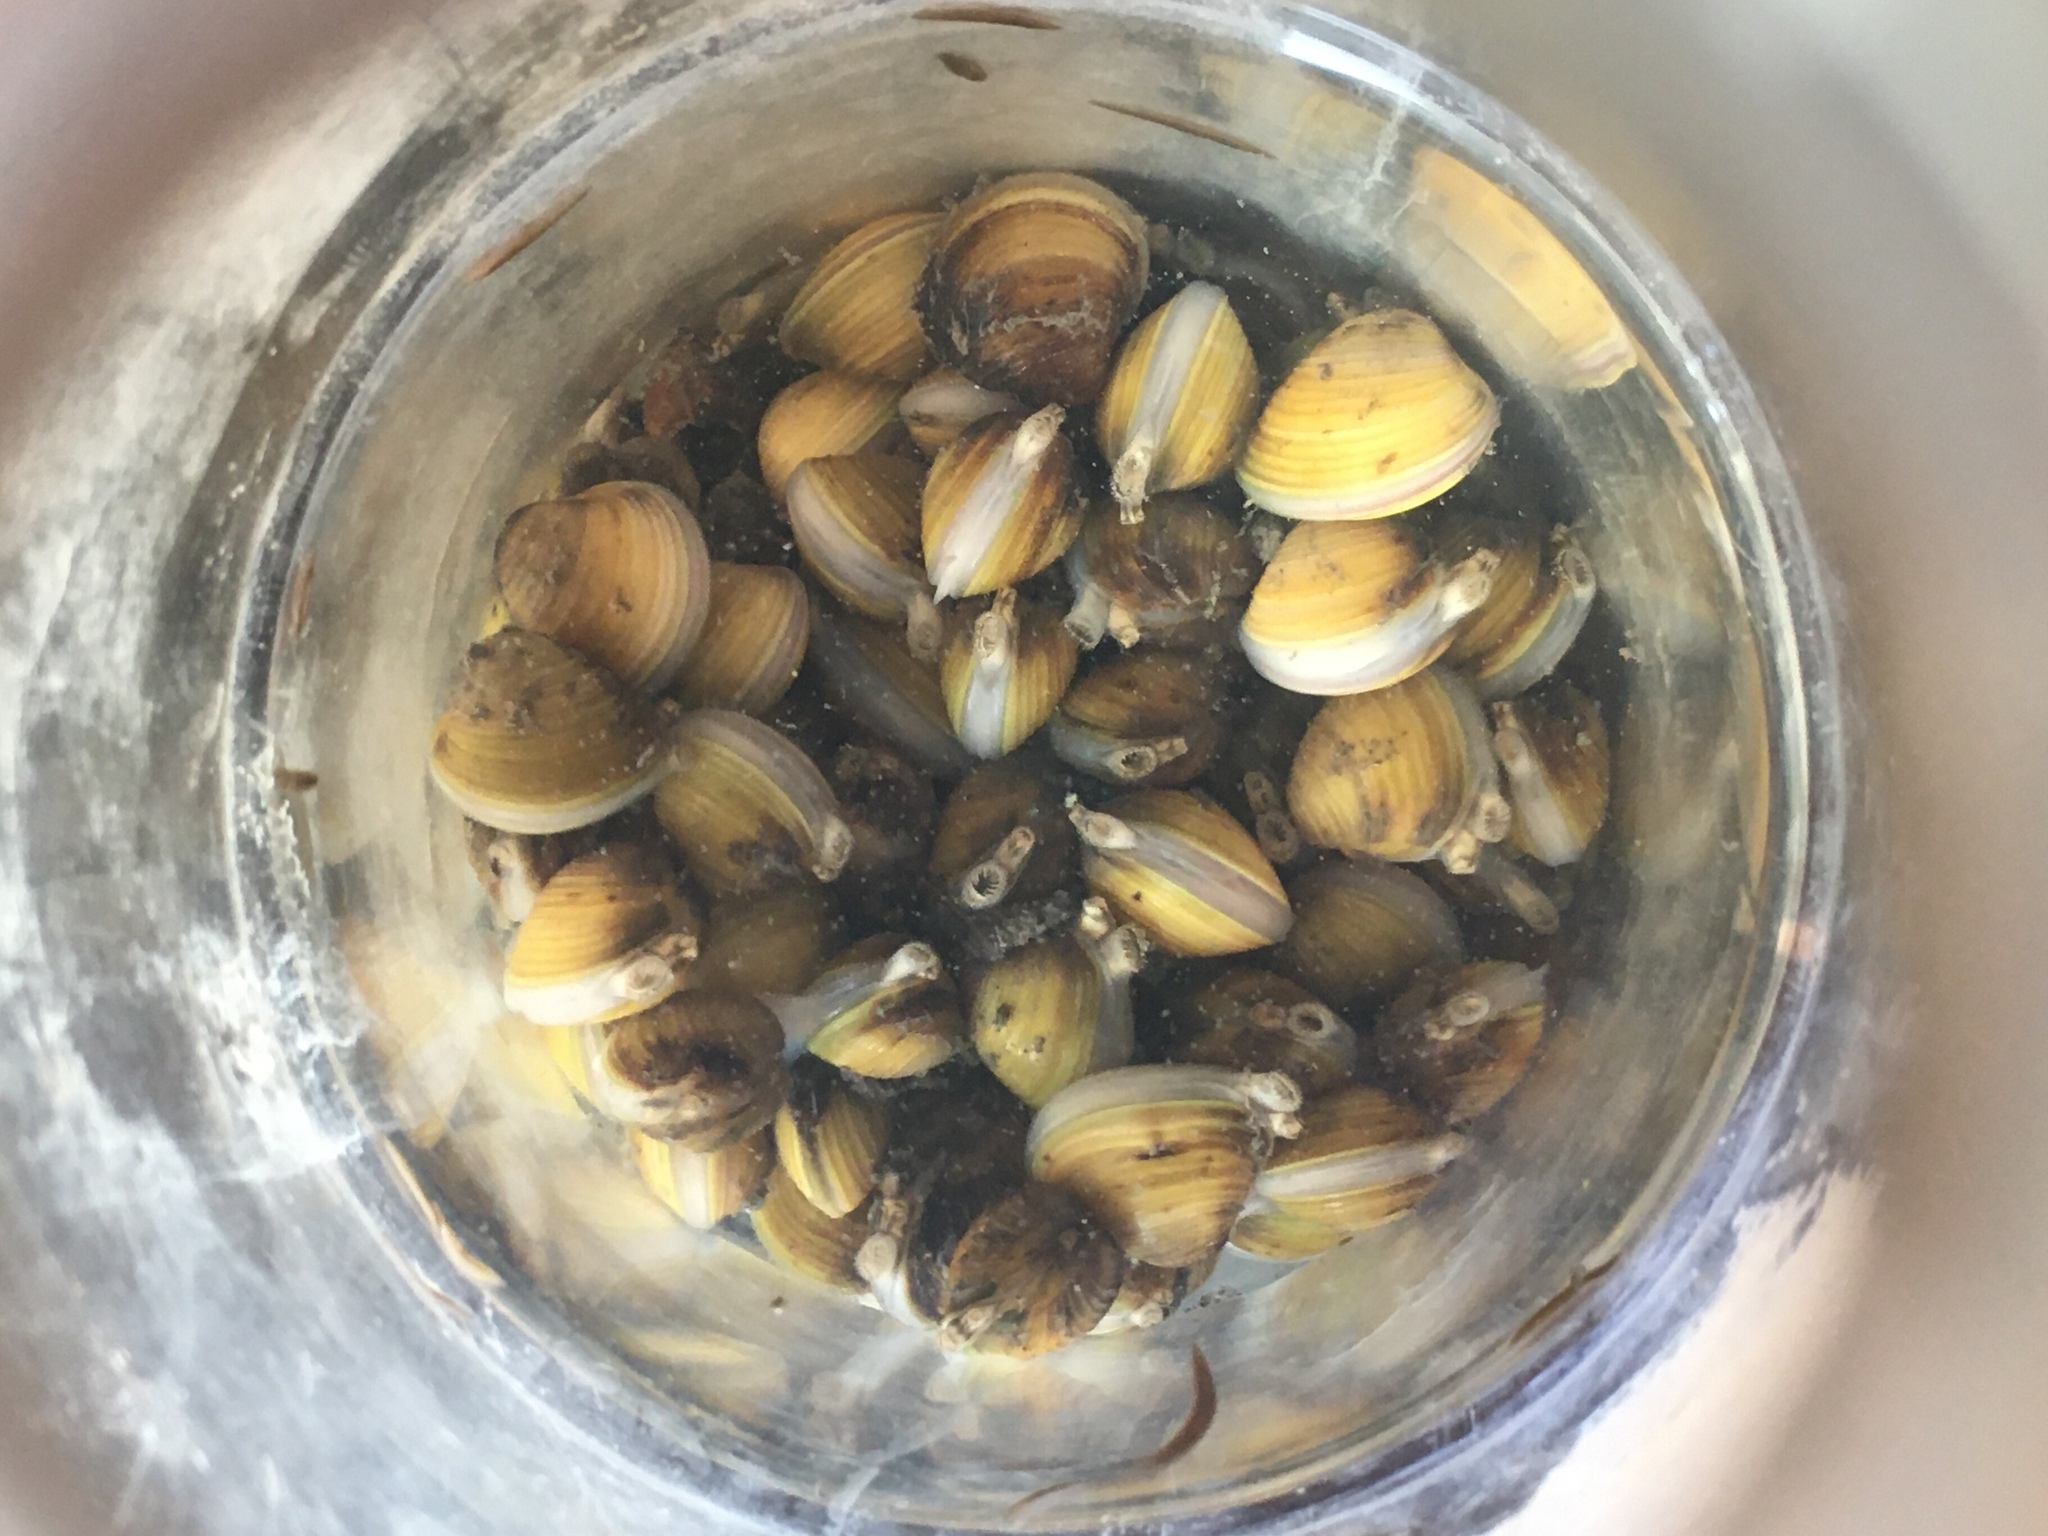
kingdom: Animalia
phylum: Mollusca
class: Bivalvia
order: Venerida
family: Cyrenidae
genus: Corbicula
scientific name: Corbicula fluminea
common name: Asian clam
